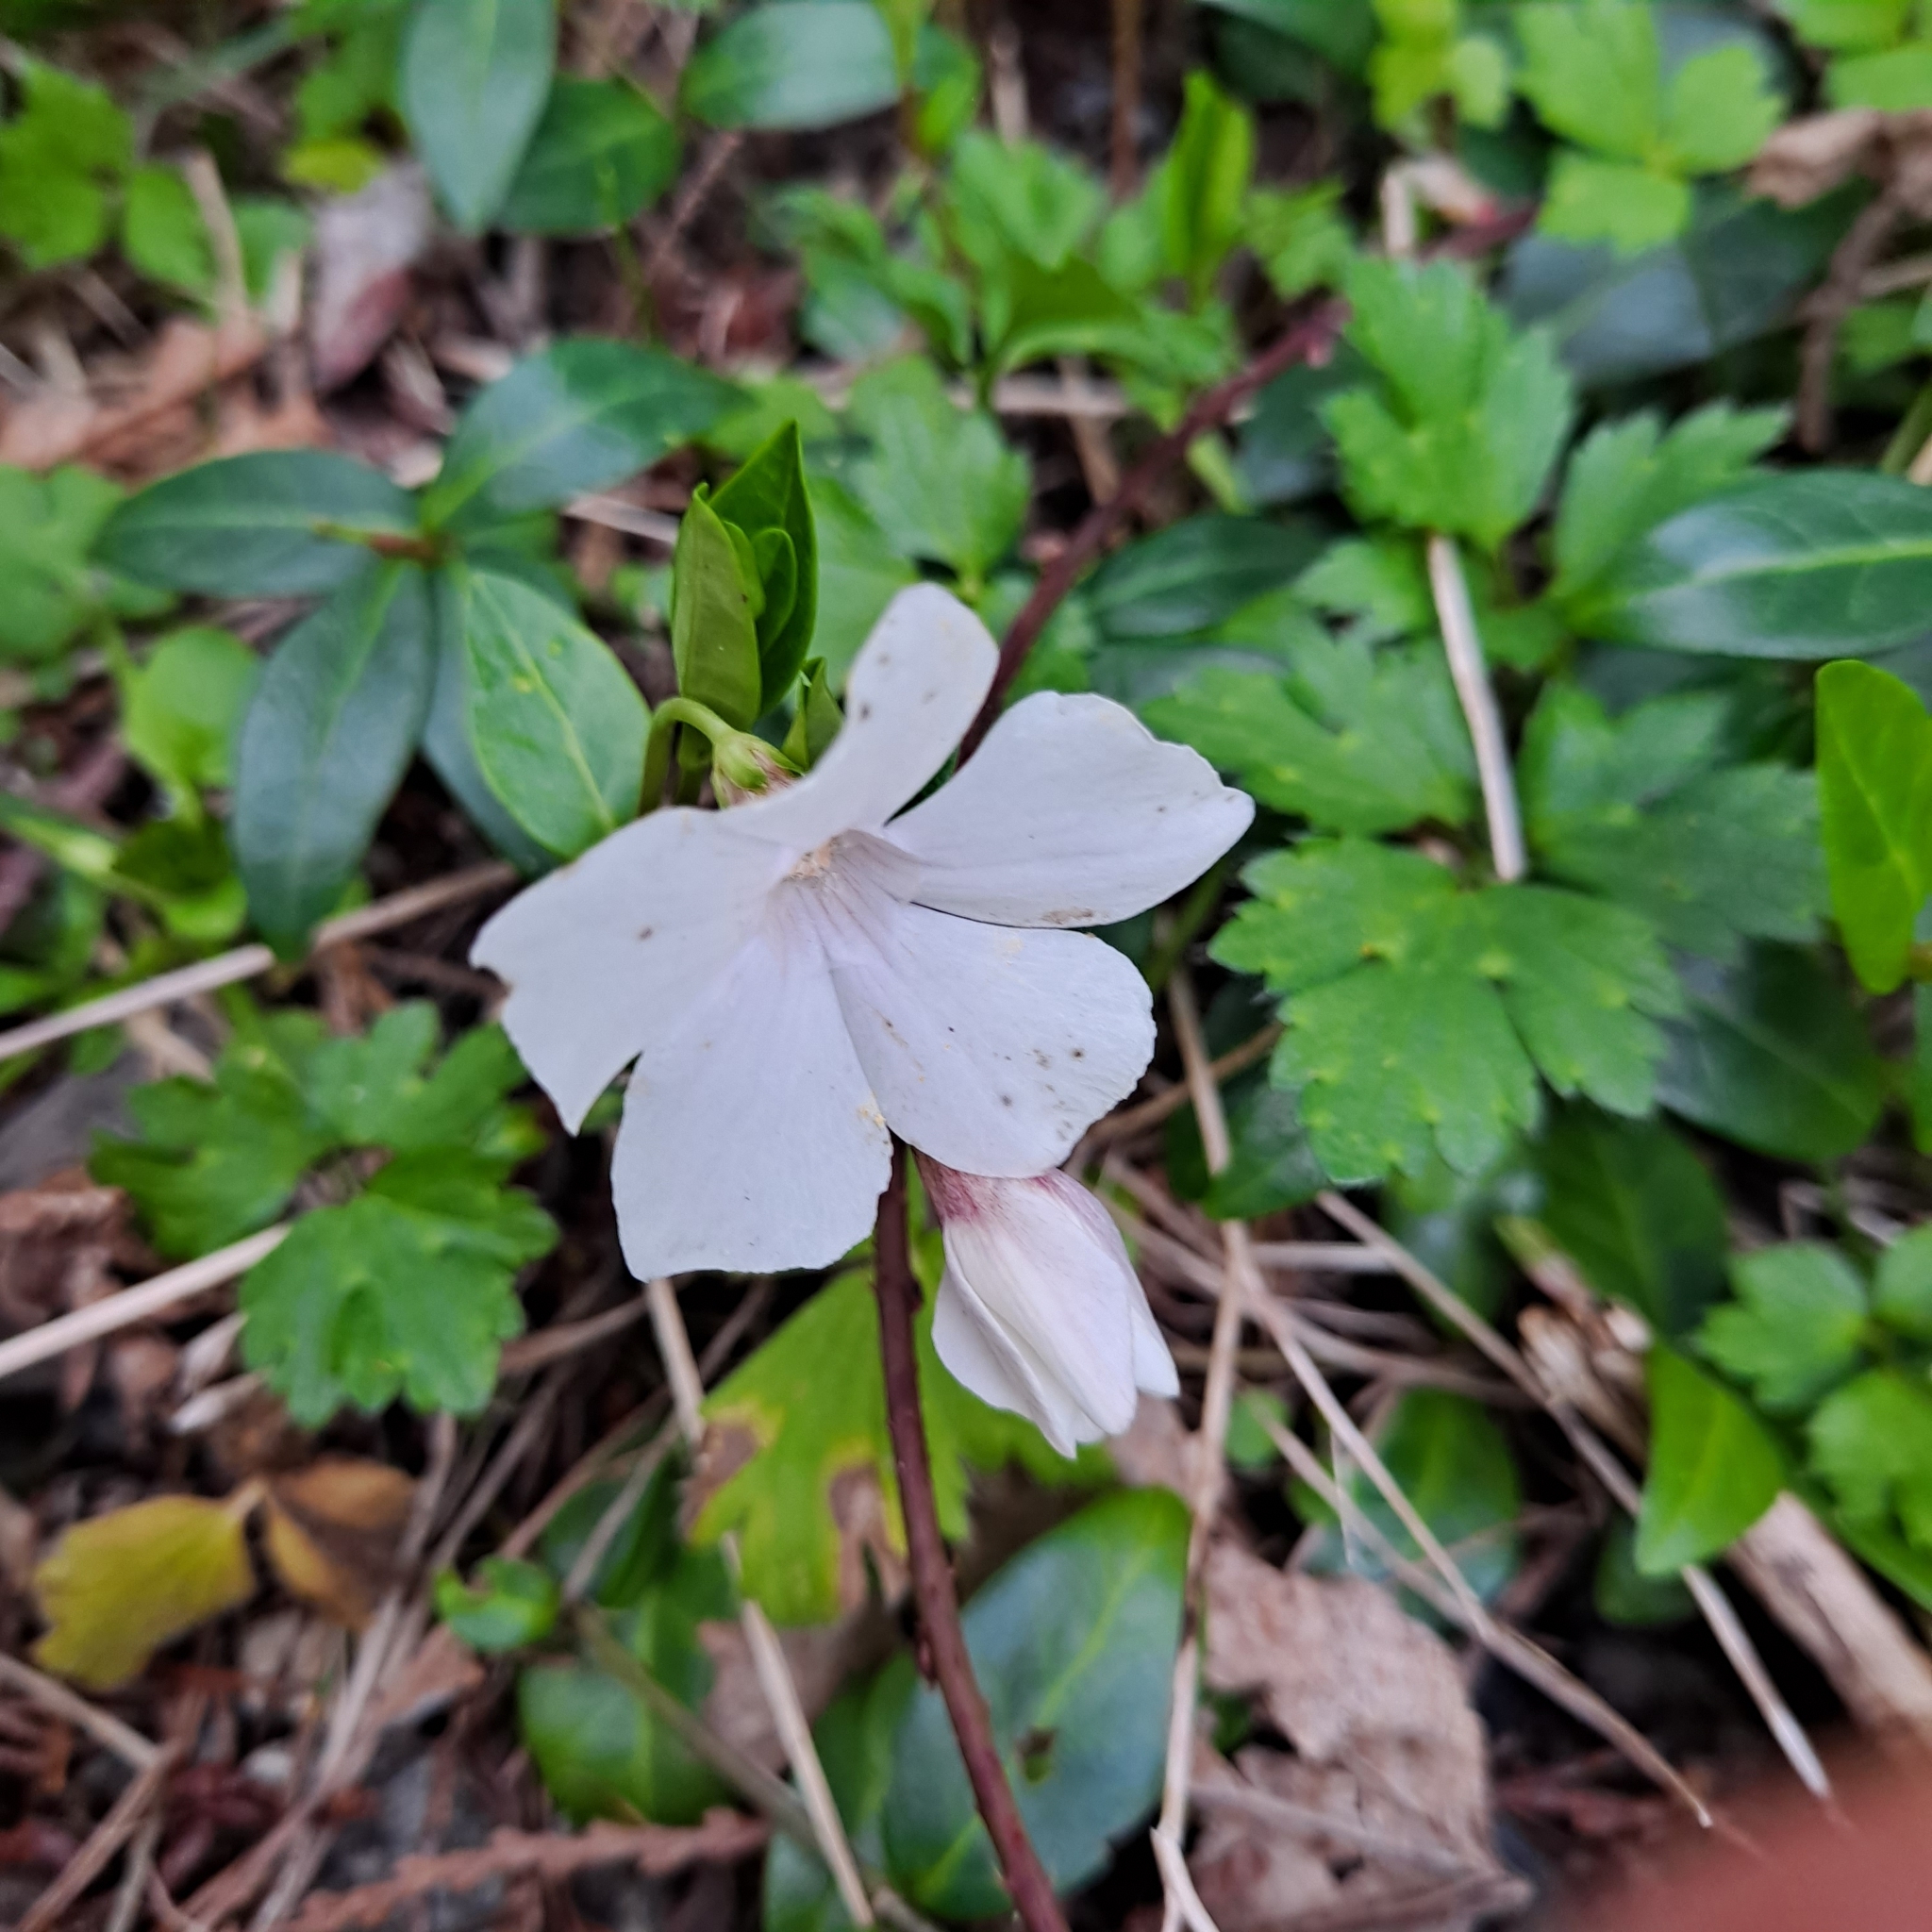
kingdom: Plantae
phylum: Tracheophyta
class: Magnoliopsida
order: Gentianales
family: Apocynaceae
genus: Vinca
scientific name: Vinca minor
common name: Lesser periwinkle
